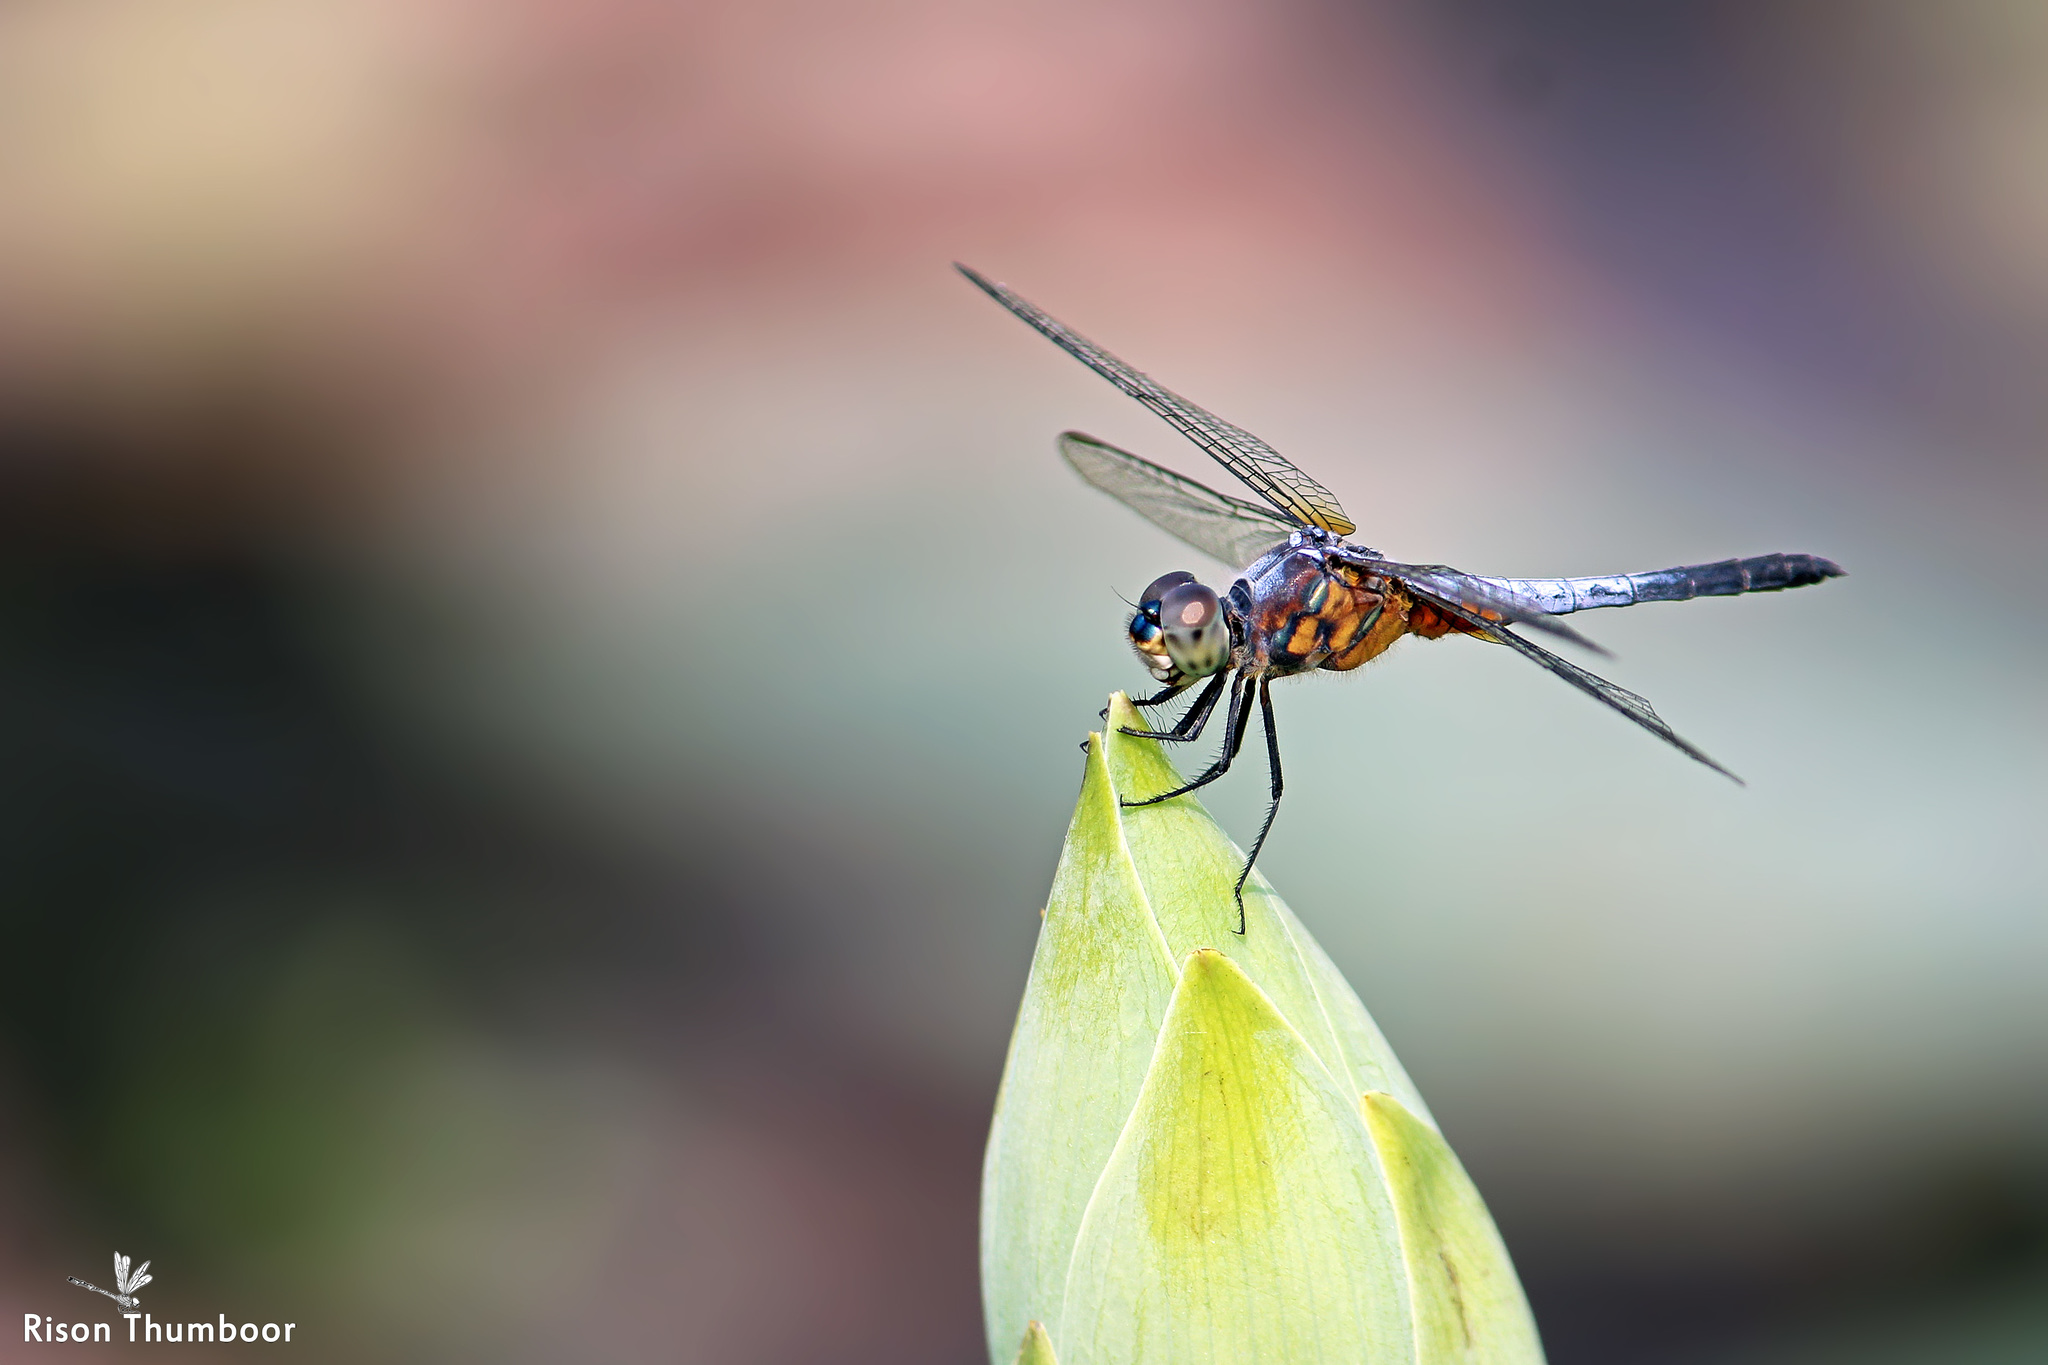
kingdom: Animalia
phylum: Arthropoda
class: Insecta
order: Odonata
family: Libellulidae
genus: Brachydiplax
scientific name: Brachydiplax chalybea
